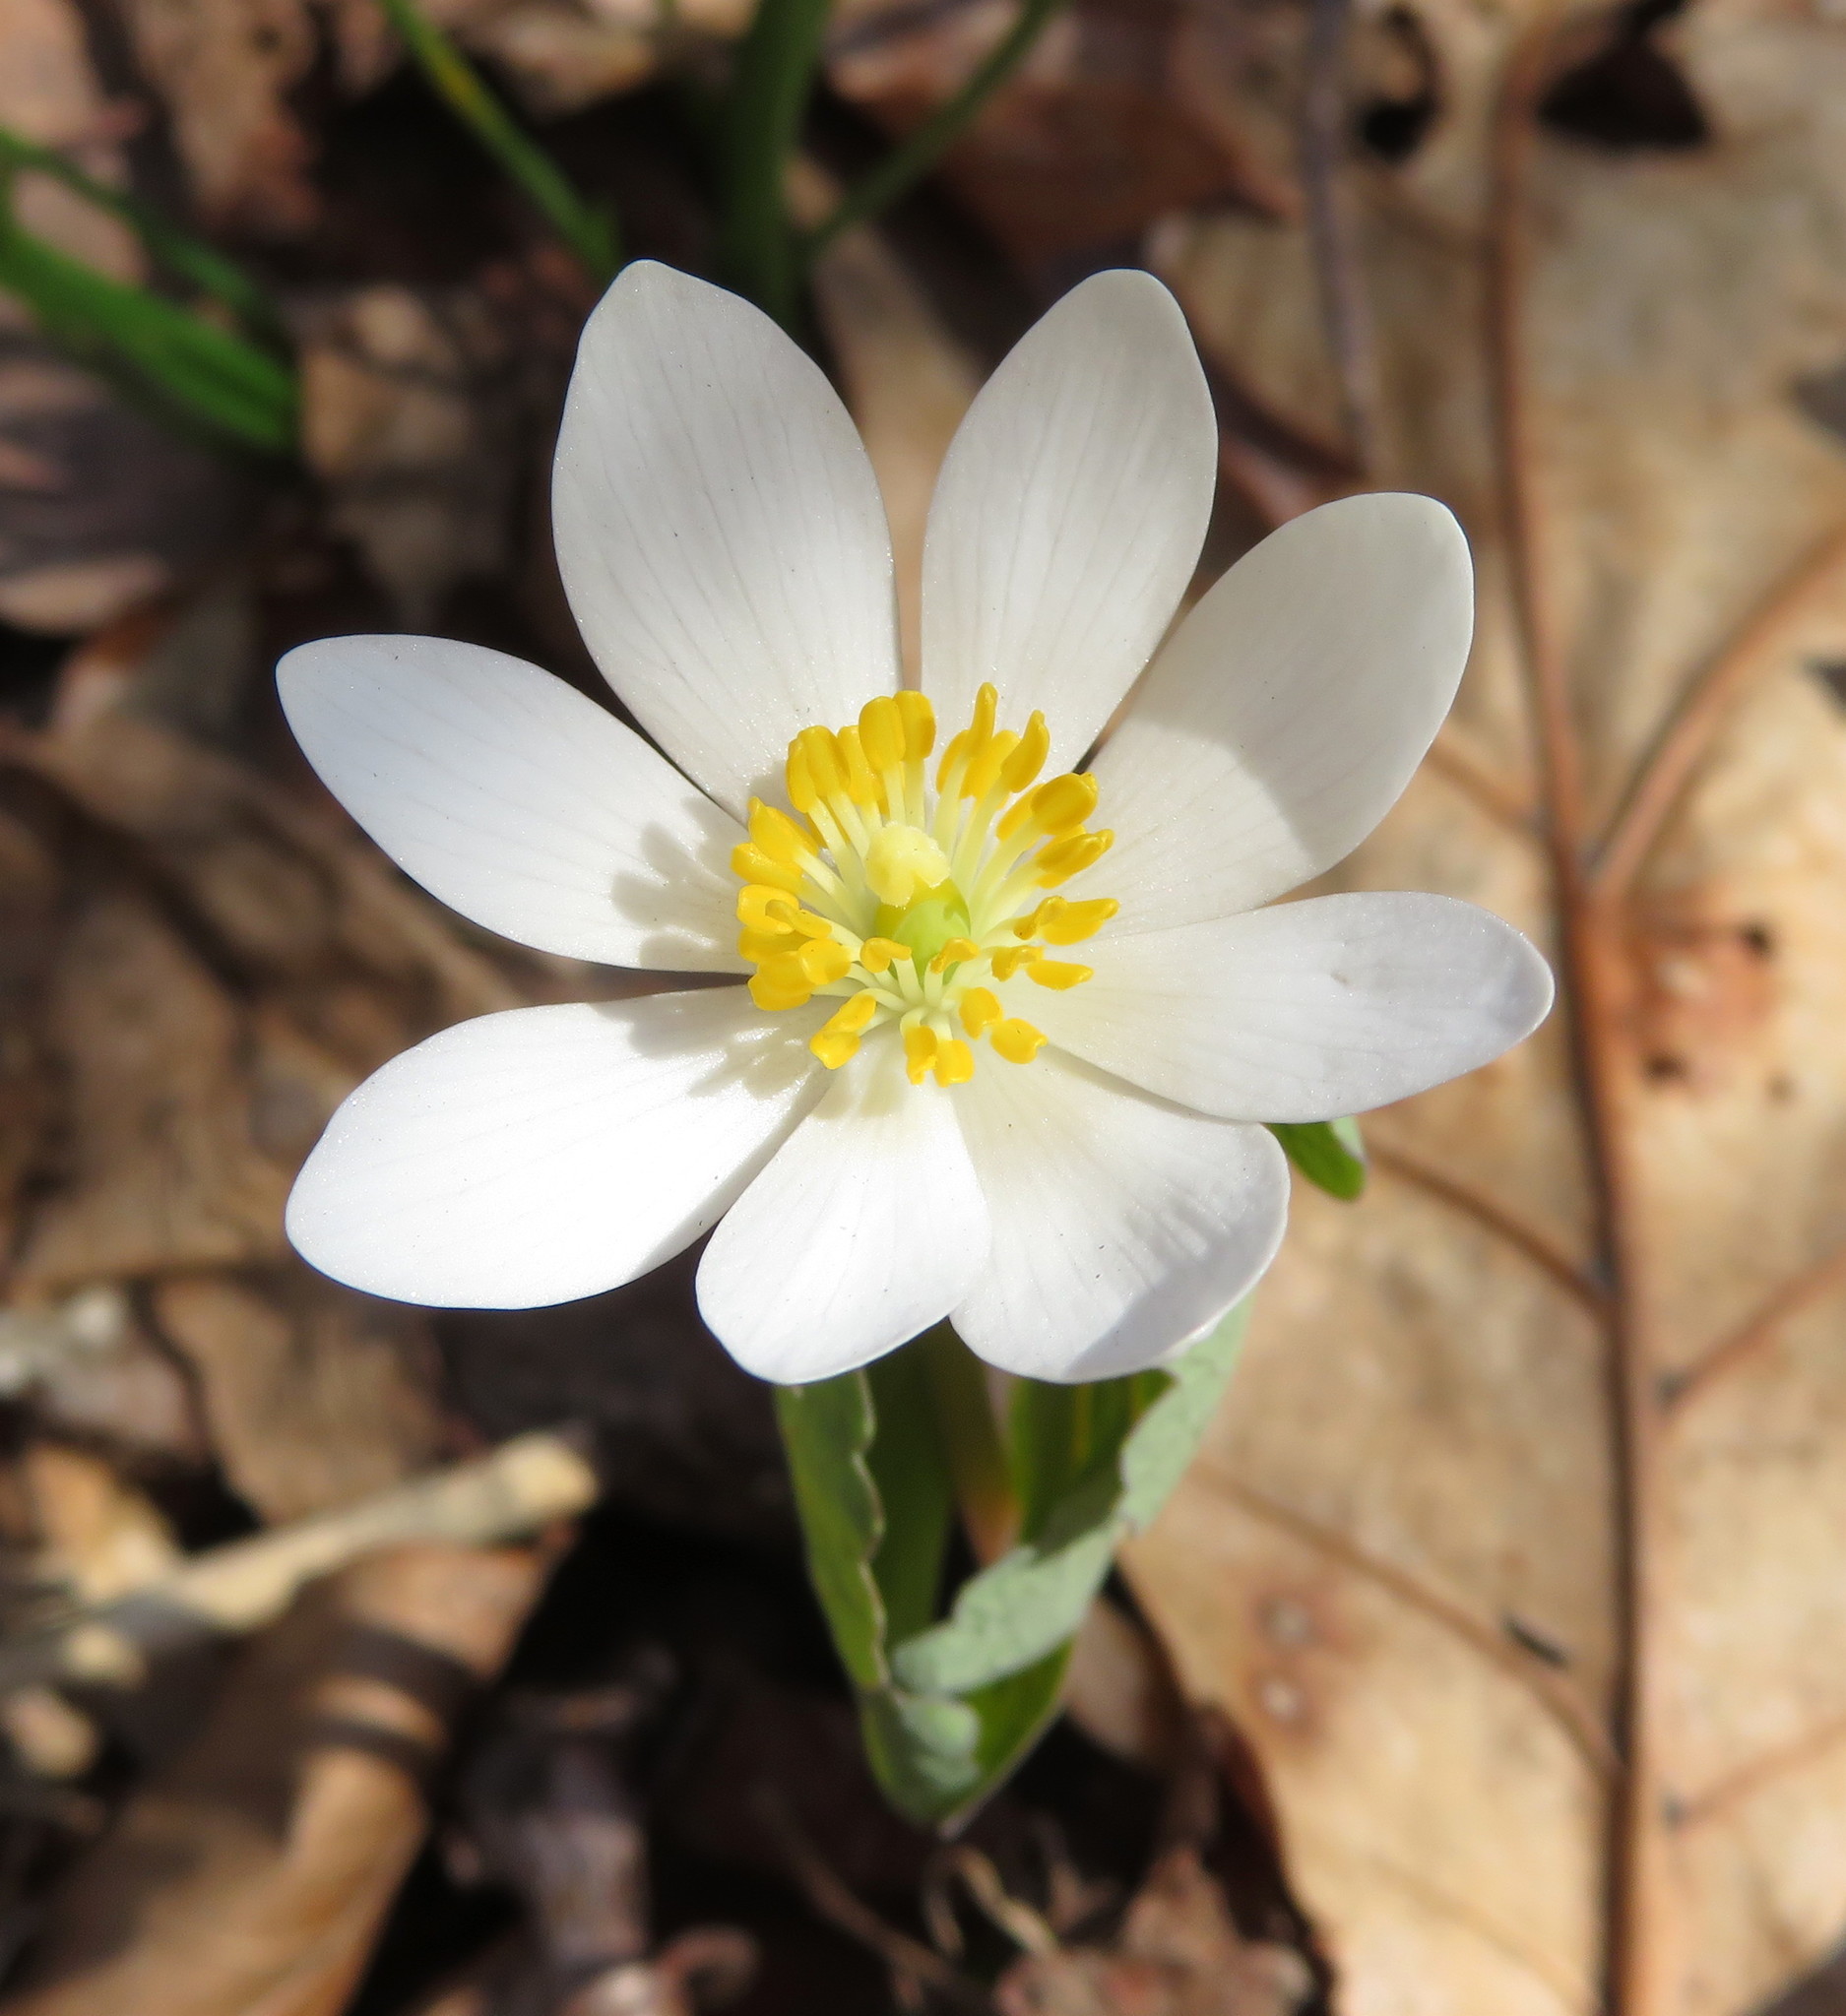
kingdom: Plantae
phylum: Tracheophyta
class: Magnoliopsida
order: Ranunculales
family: Papaveraceae
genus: Sanguinaria
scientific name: Sanguinaria canadensis
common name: Bloodroot
